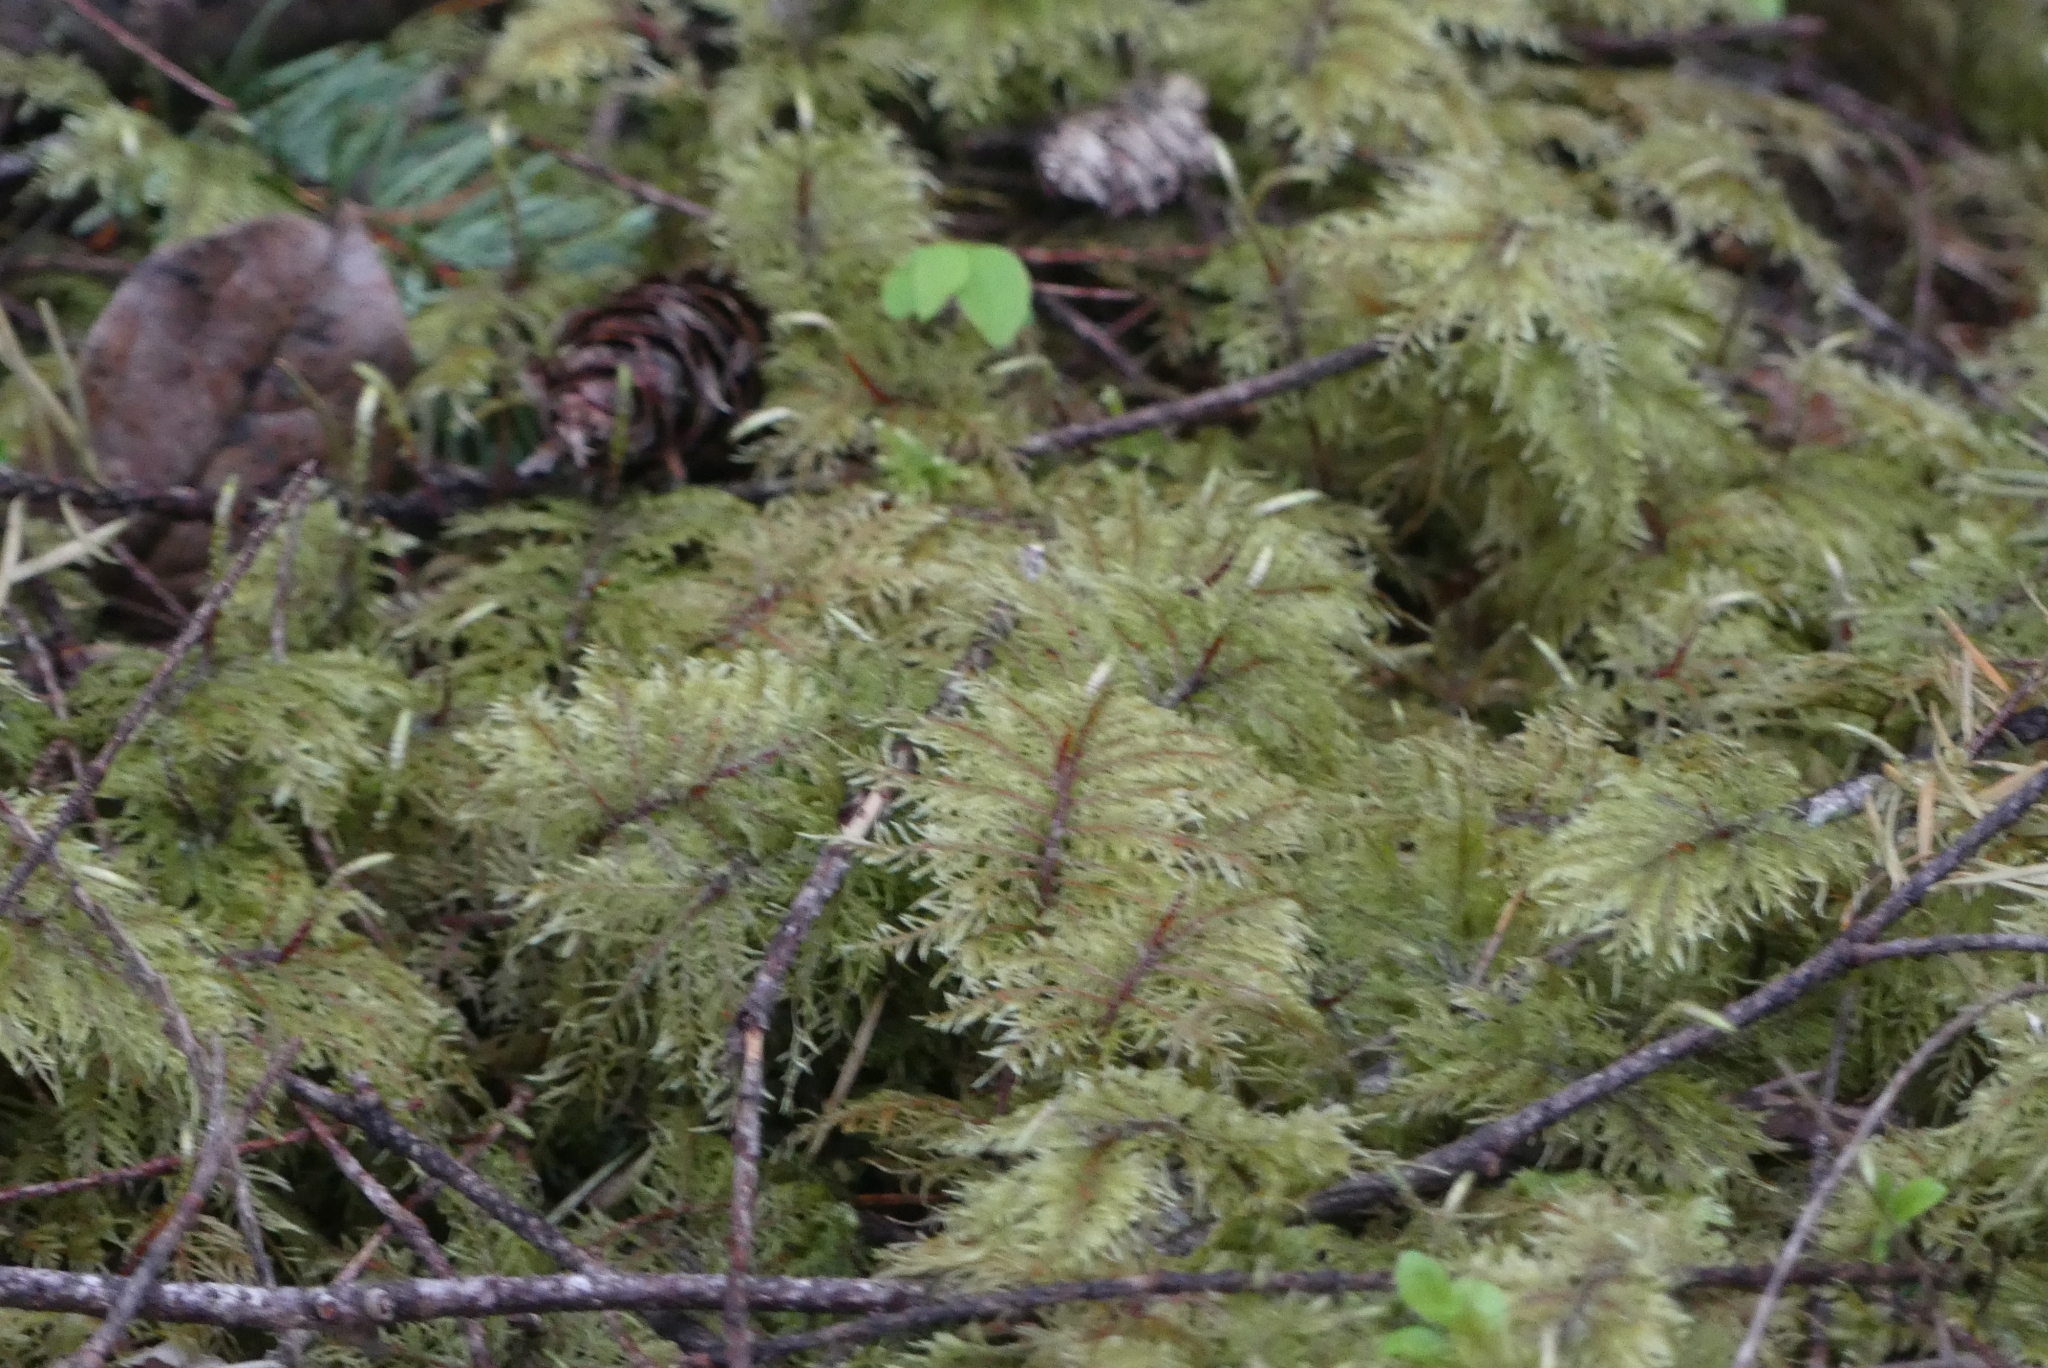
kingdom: Plantae
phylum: Bryophyta
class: Bryopsida
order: Hypnales
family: Hylocomiaceae
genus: Hylocomium
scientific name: Hylocomium splendens
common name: Stairstep moss
